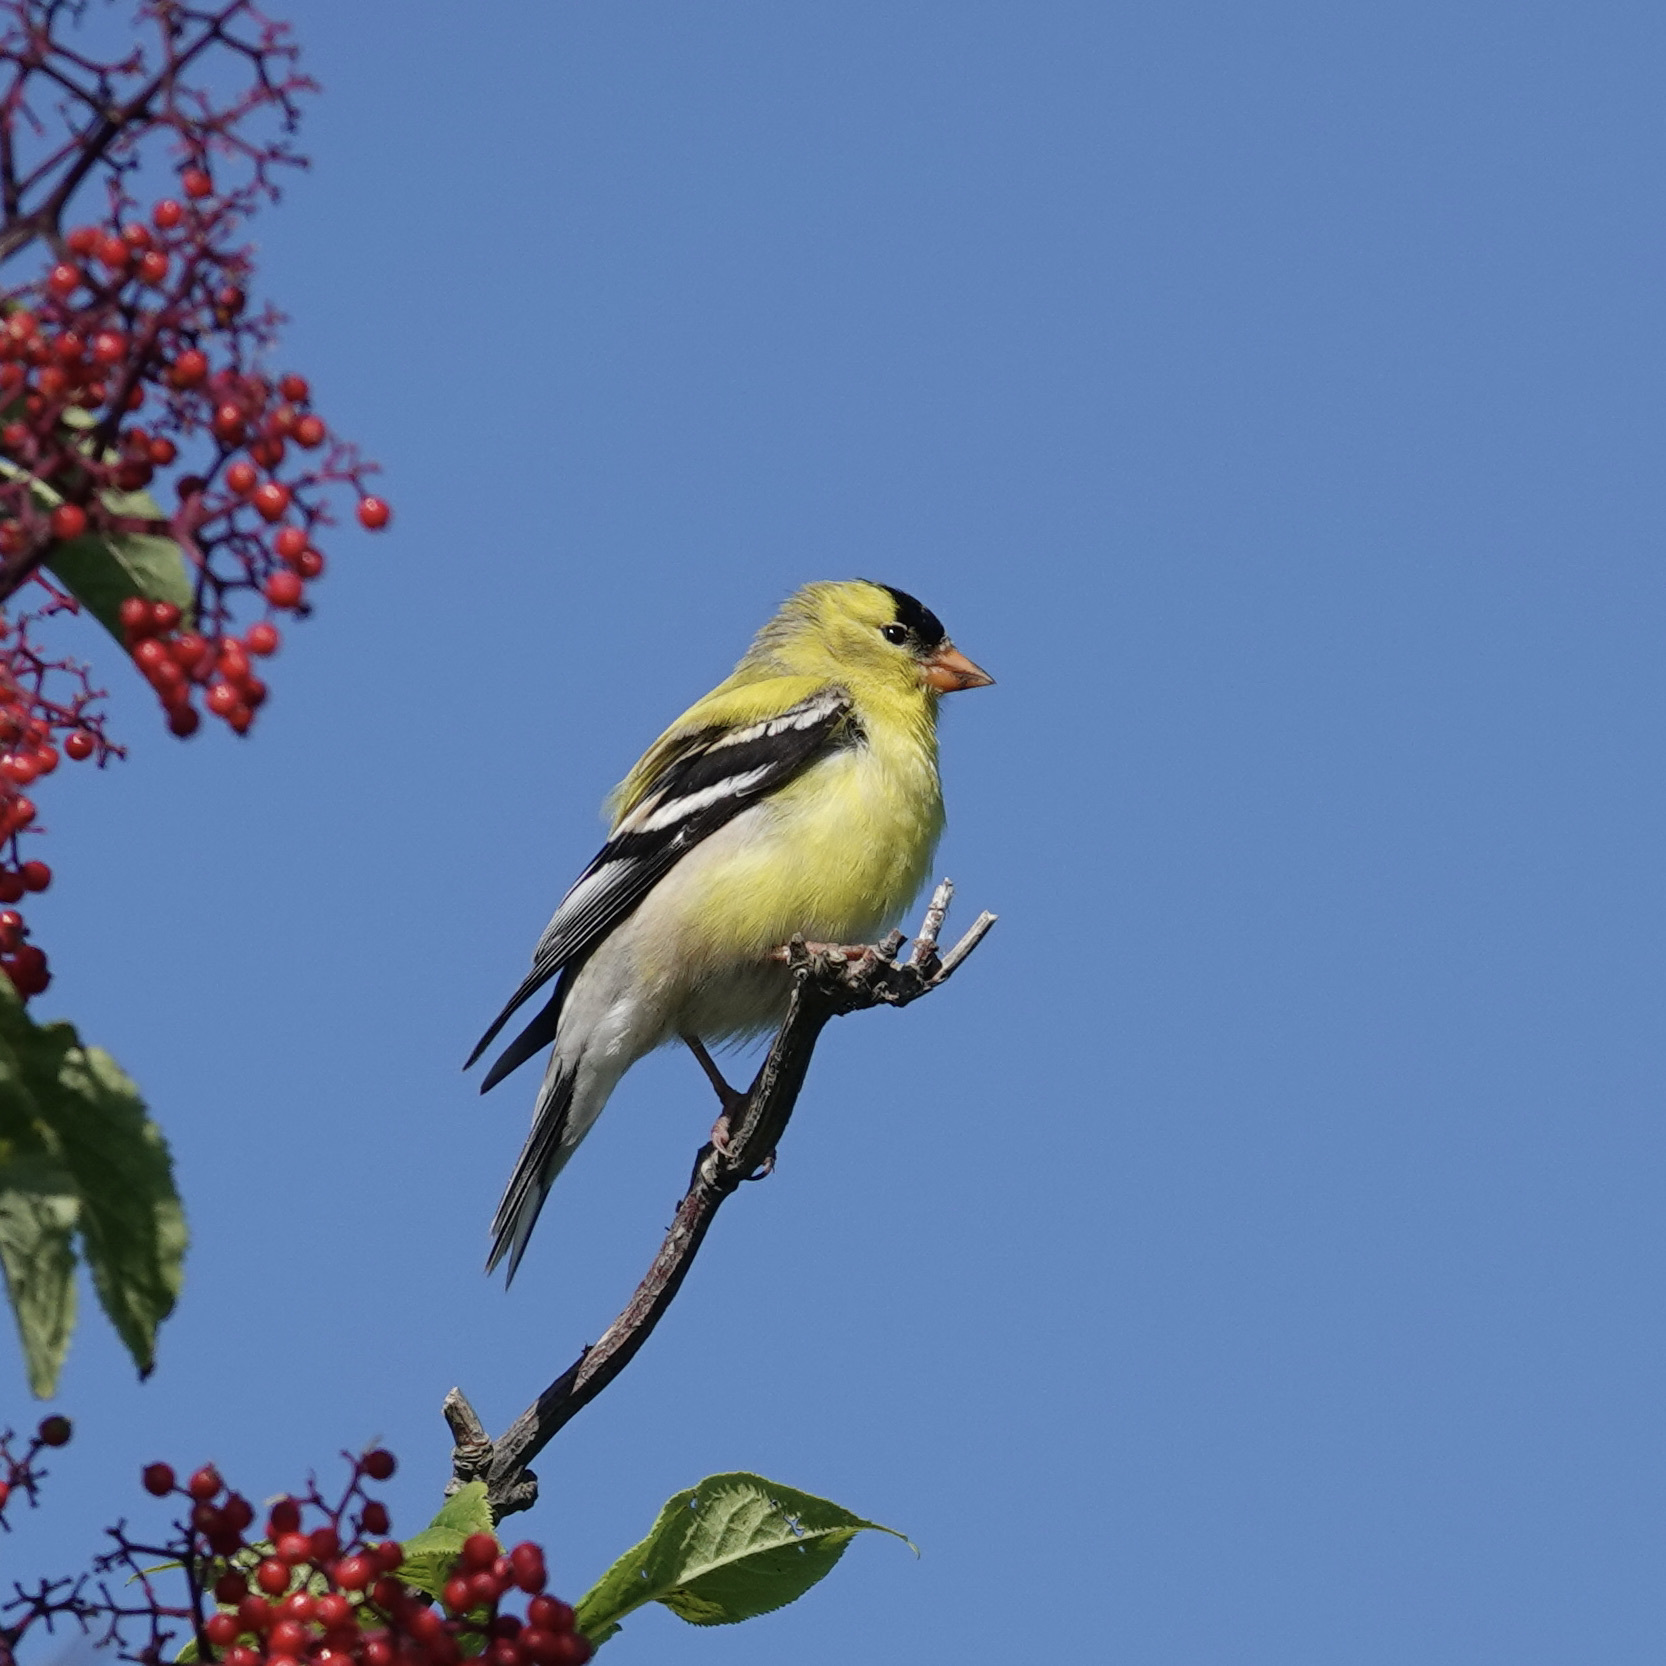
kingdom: Animalia
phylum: Chordata
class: Aves
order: Passeriformes
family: Fringillidae
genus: Spinus
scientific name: Spinus tristis
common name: American goldfinch
